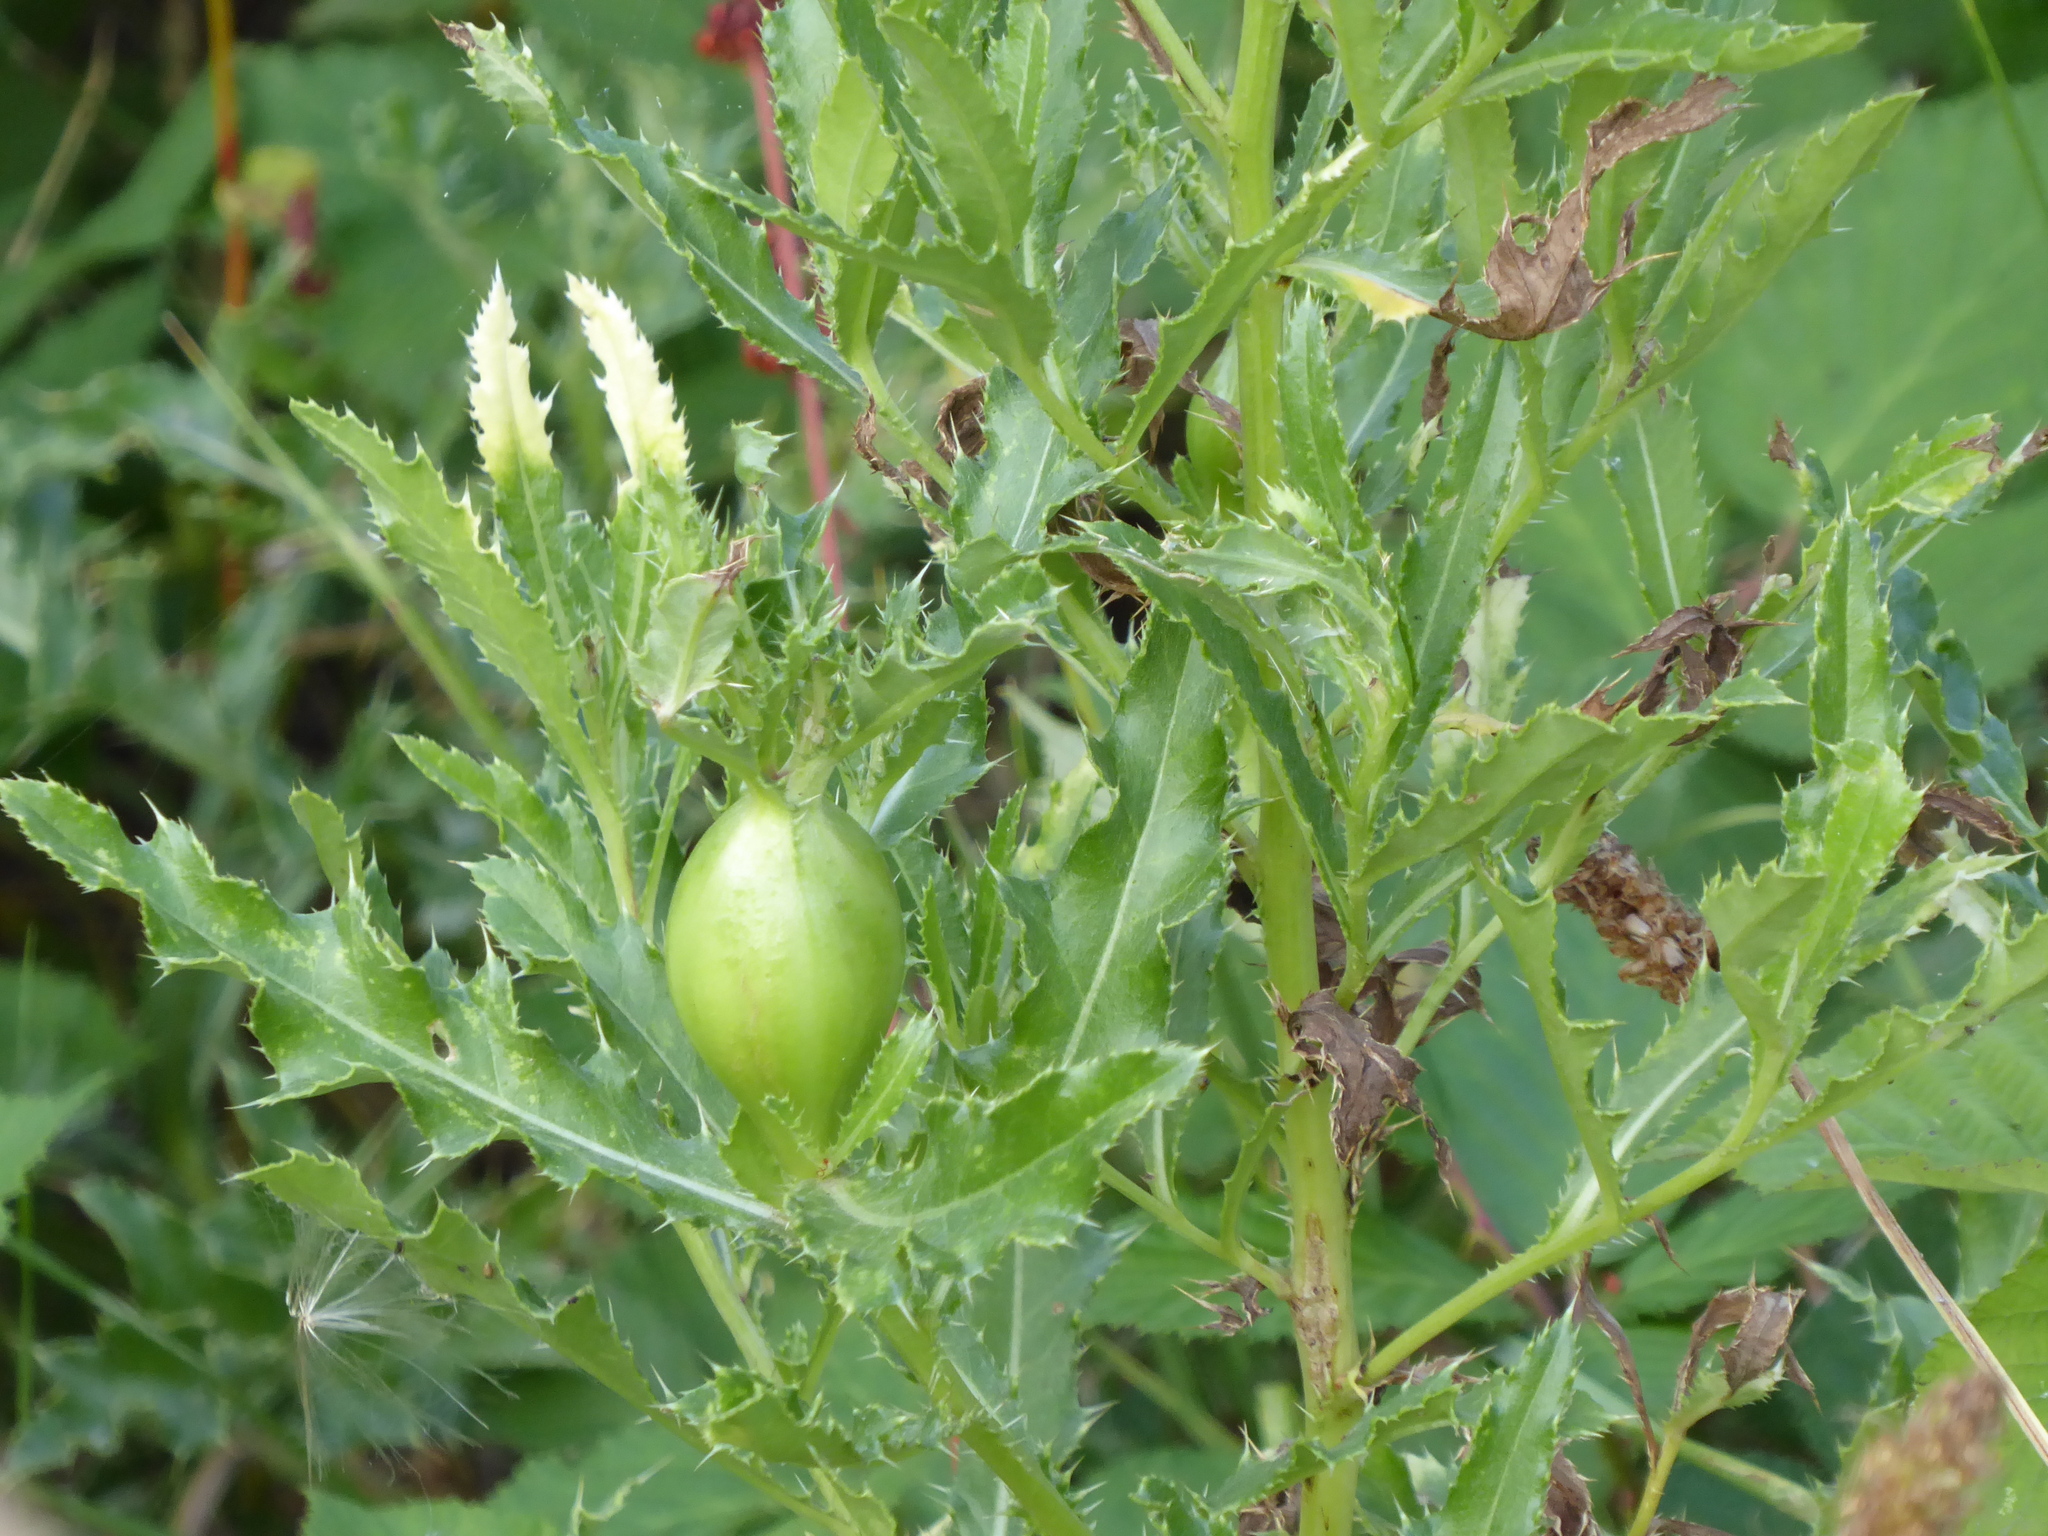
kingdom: Animalia
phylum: Arthropoda
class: Insecta
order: Diptera
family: Tephritidae
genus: Urophora
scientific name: Urophora cardui
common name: Fruit fly
